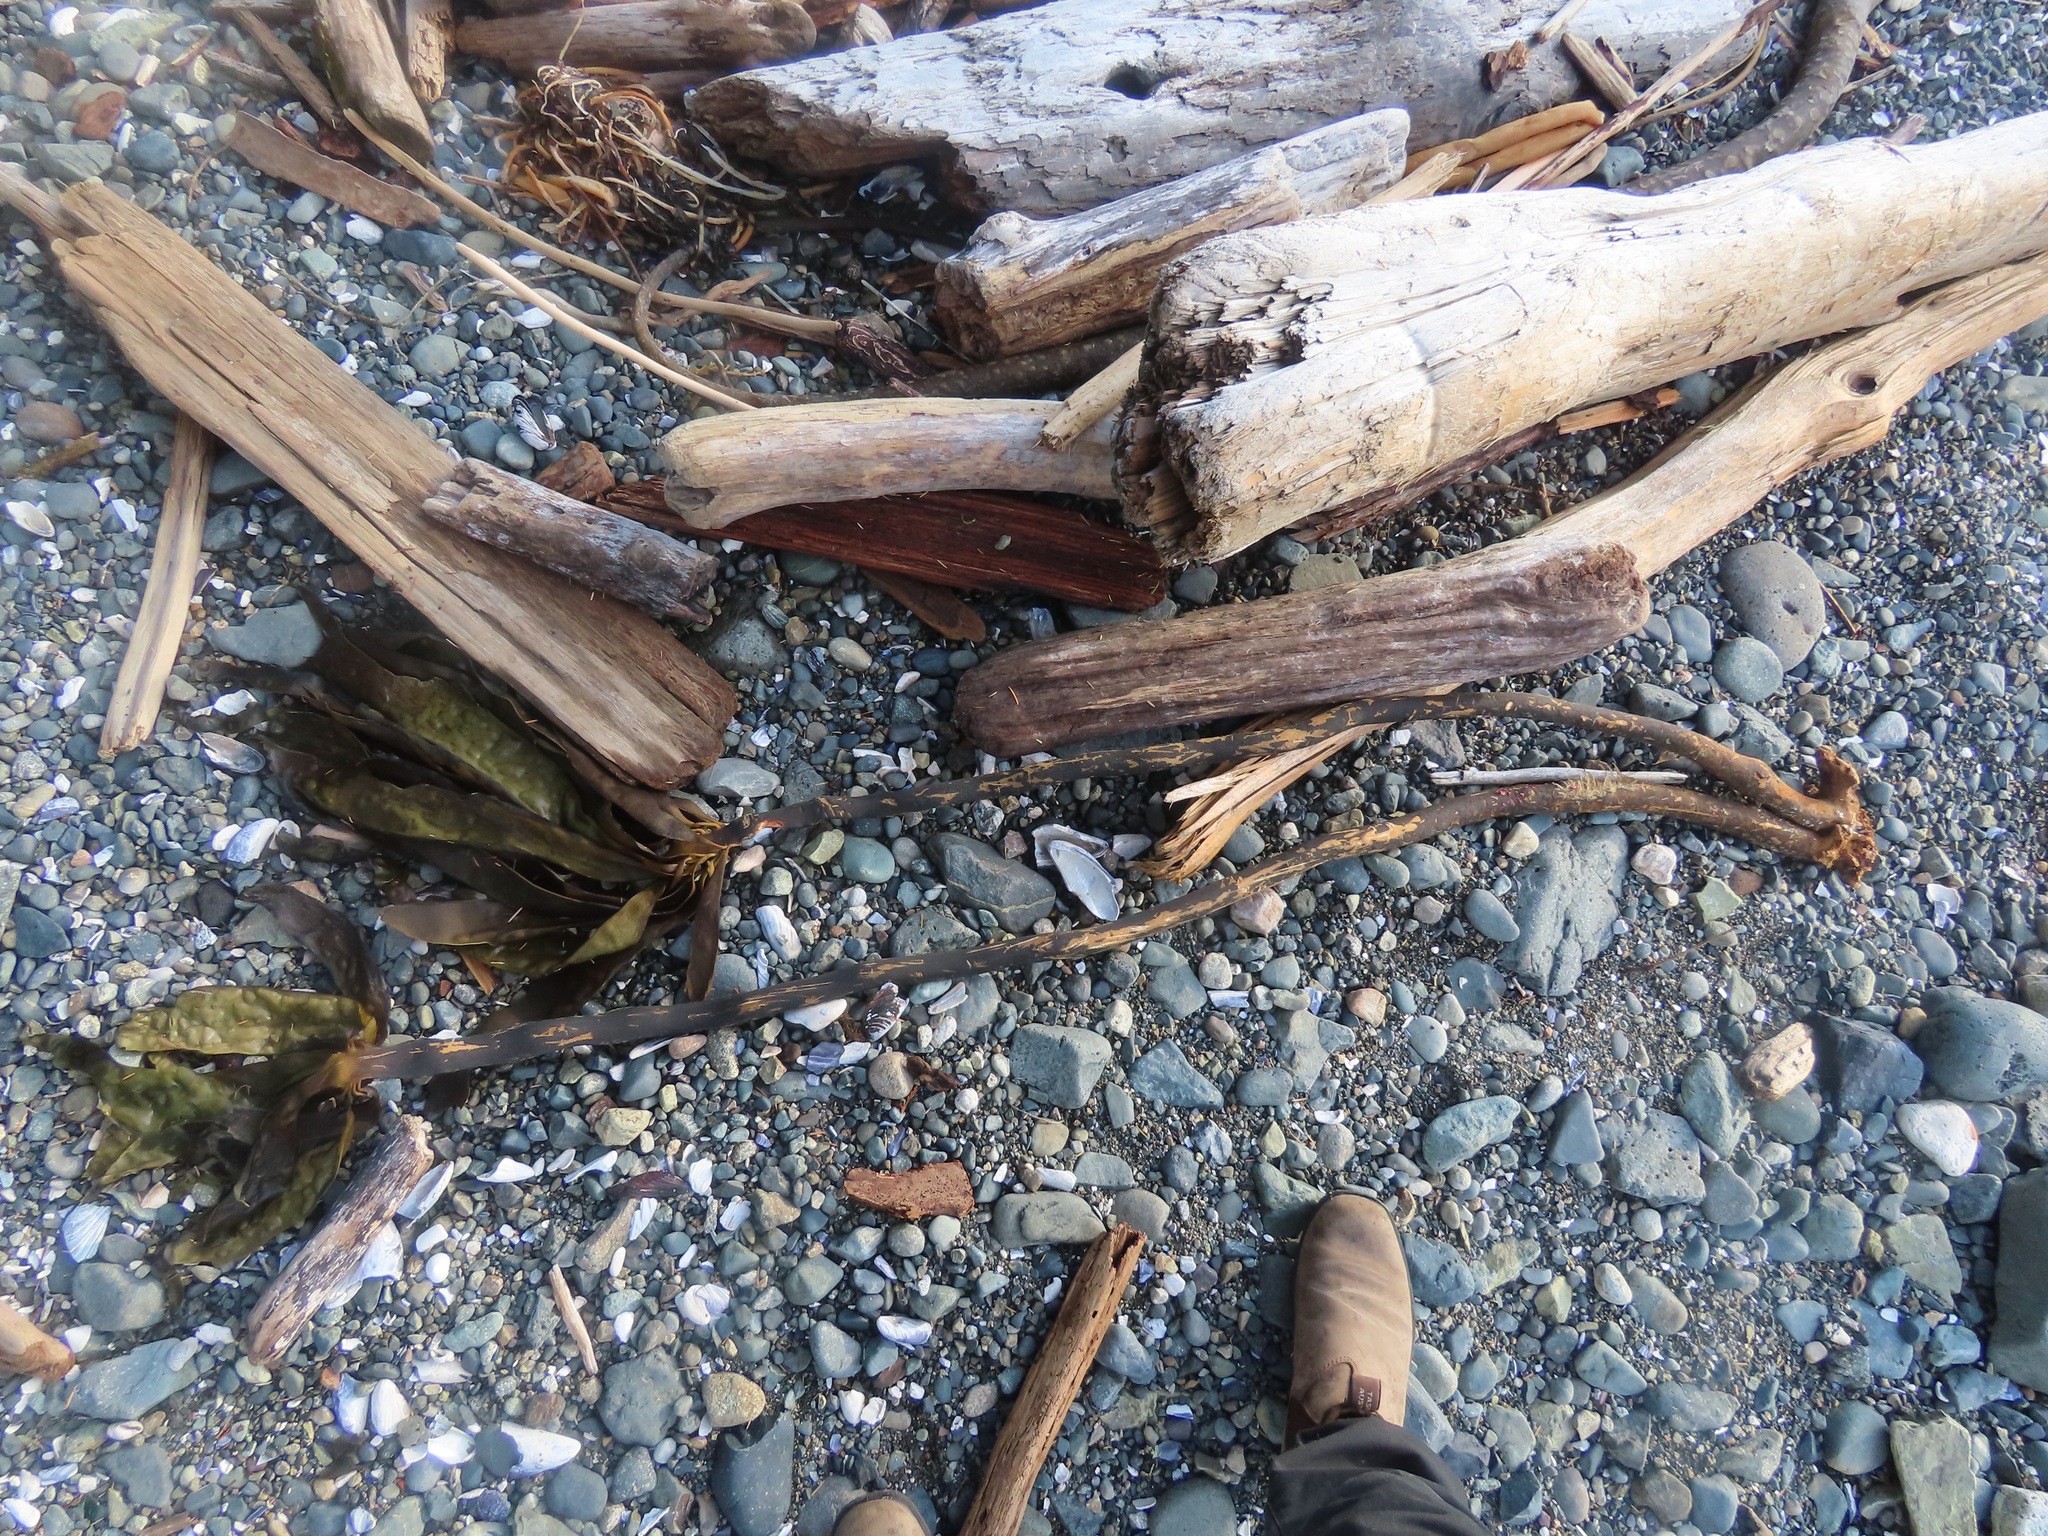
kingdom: Chromista
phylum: Ochrophyta
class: Phaeophyceae
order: Laminariales
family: Alariaceae
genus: Pterygophora
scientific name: Pterygophora californica
